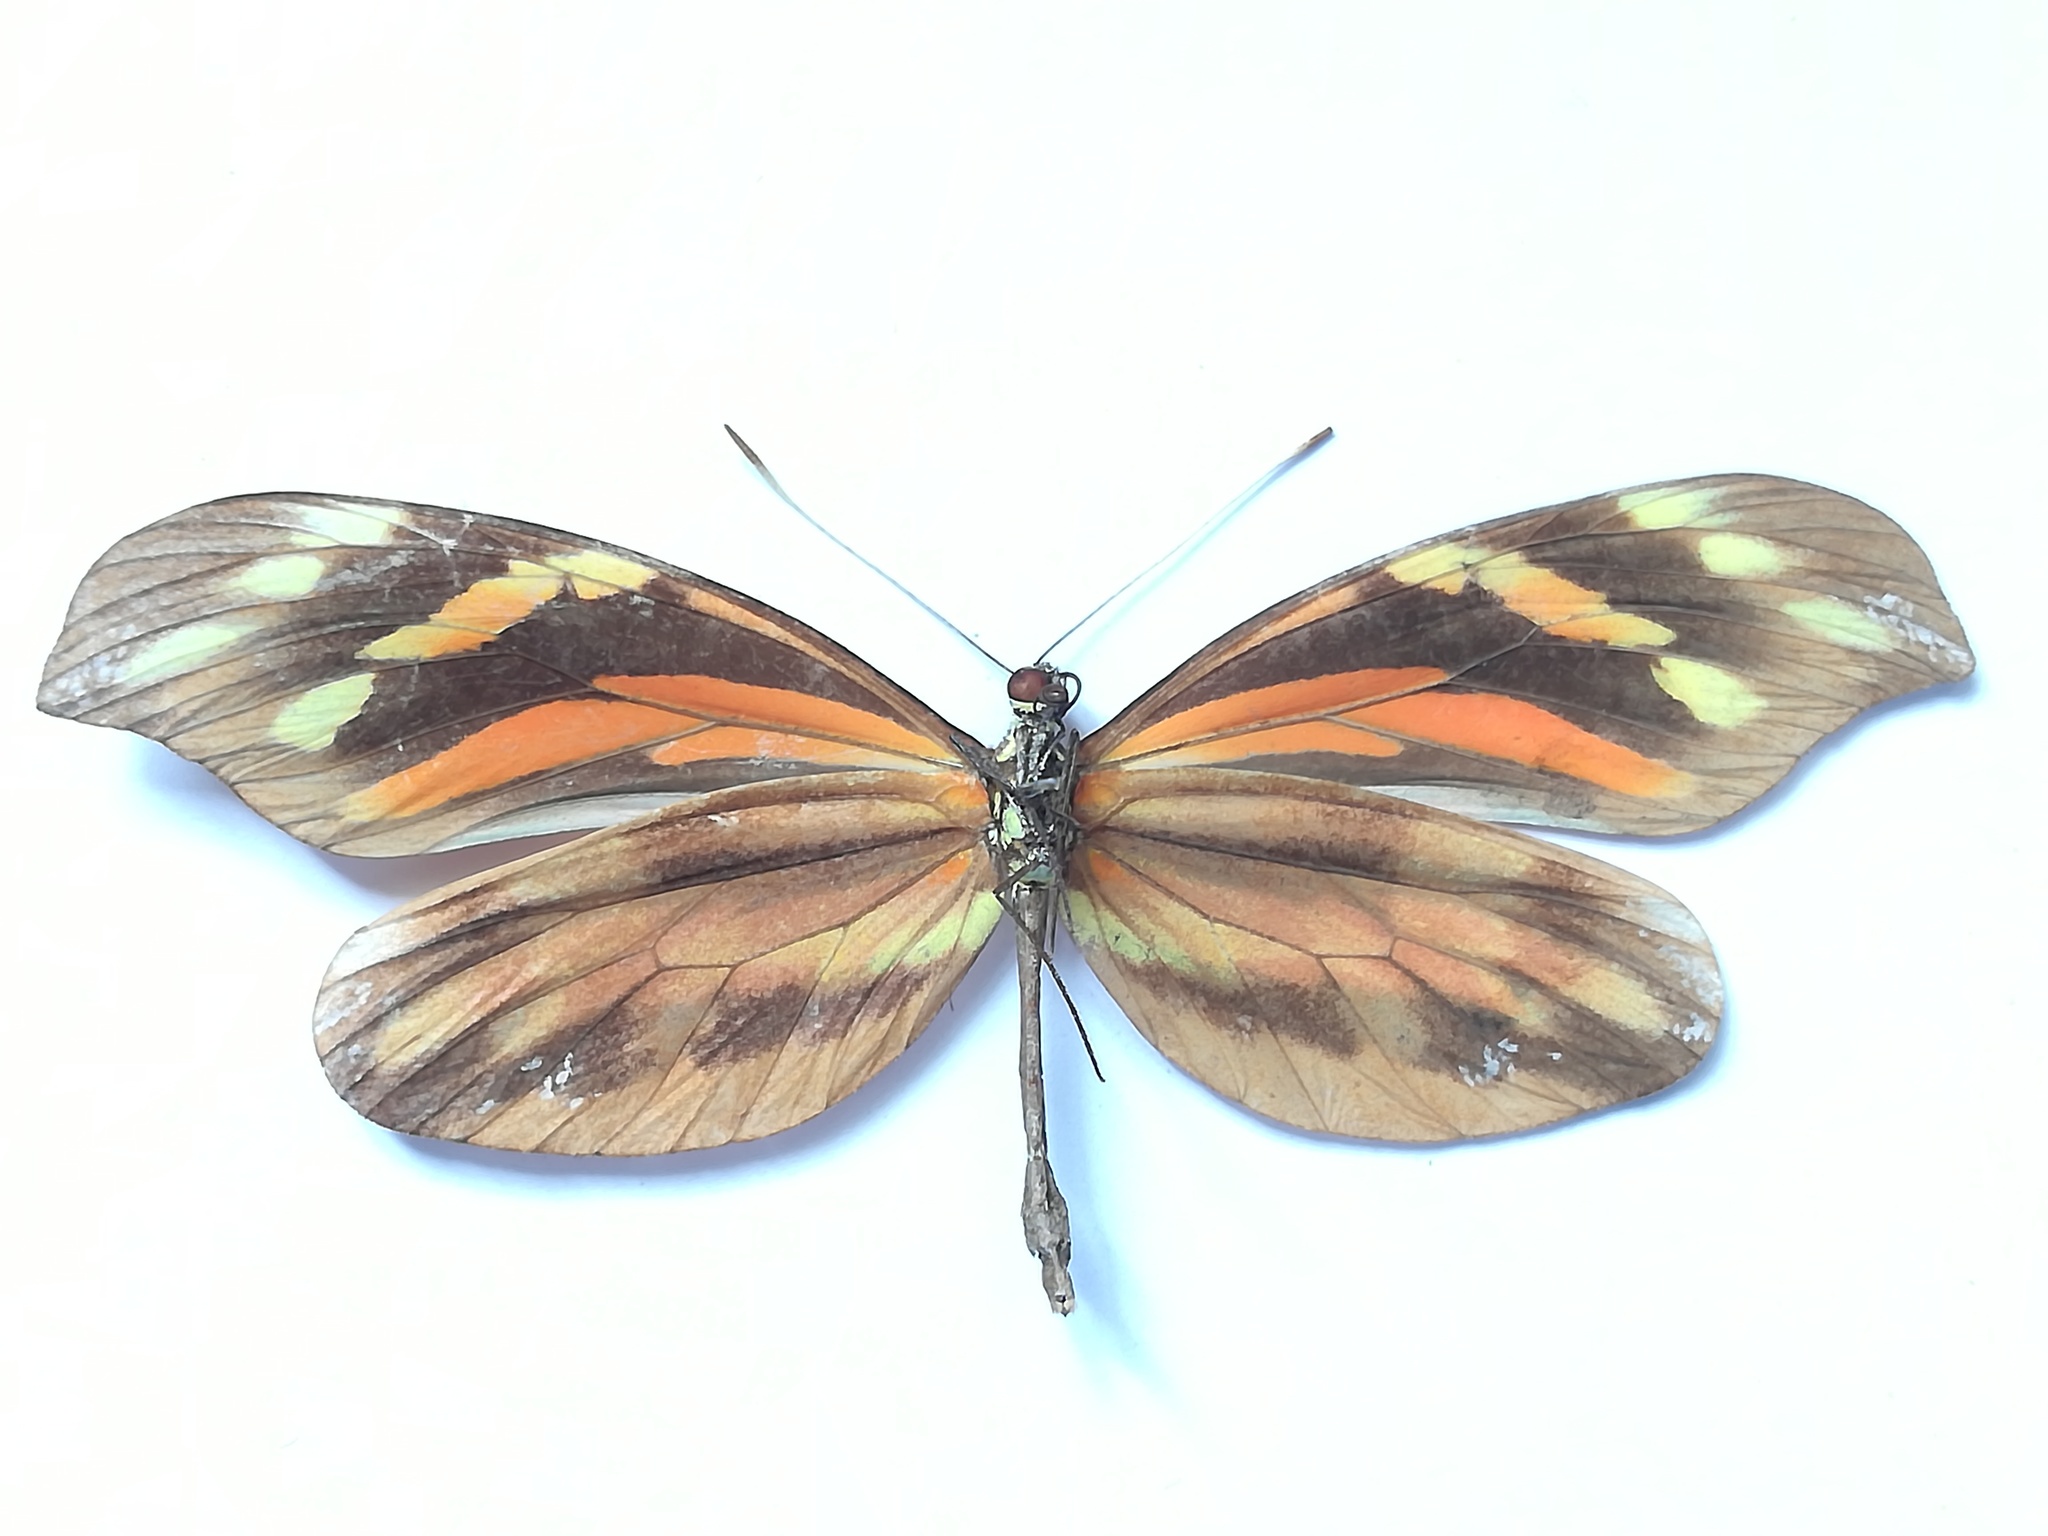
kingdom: Animalia
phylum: Arthropoda
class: Insecta
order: Lepidoptera
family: Pieridae
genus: Dismorphia
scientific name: Dismorphia amphione
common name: Tiger mimic-white
